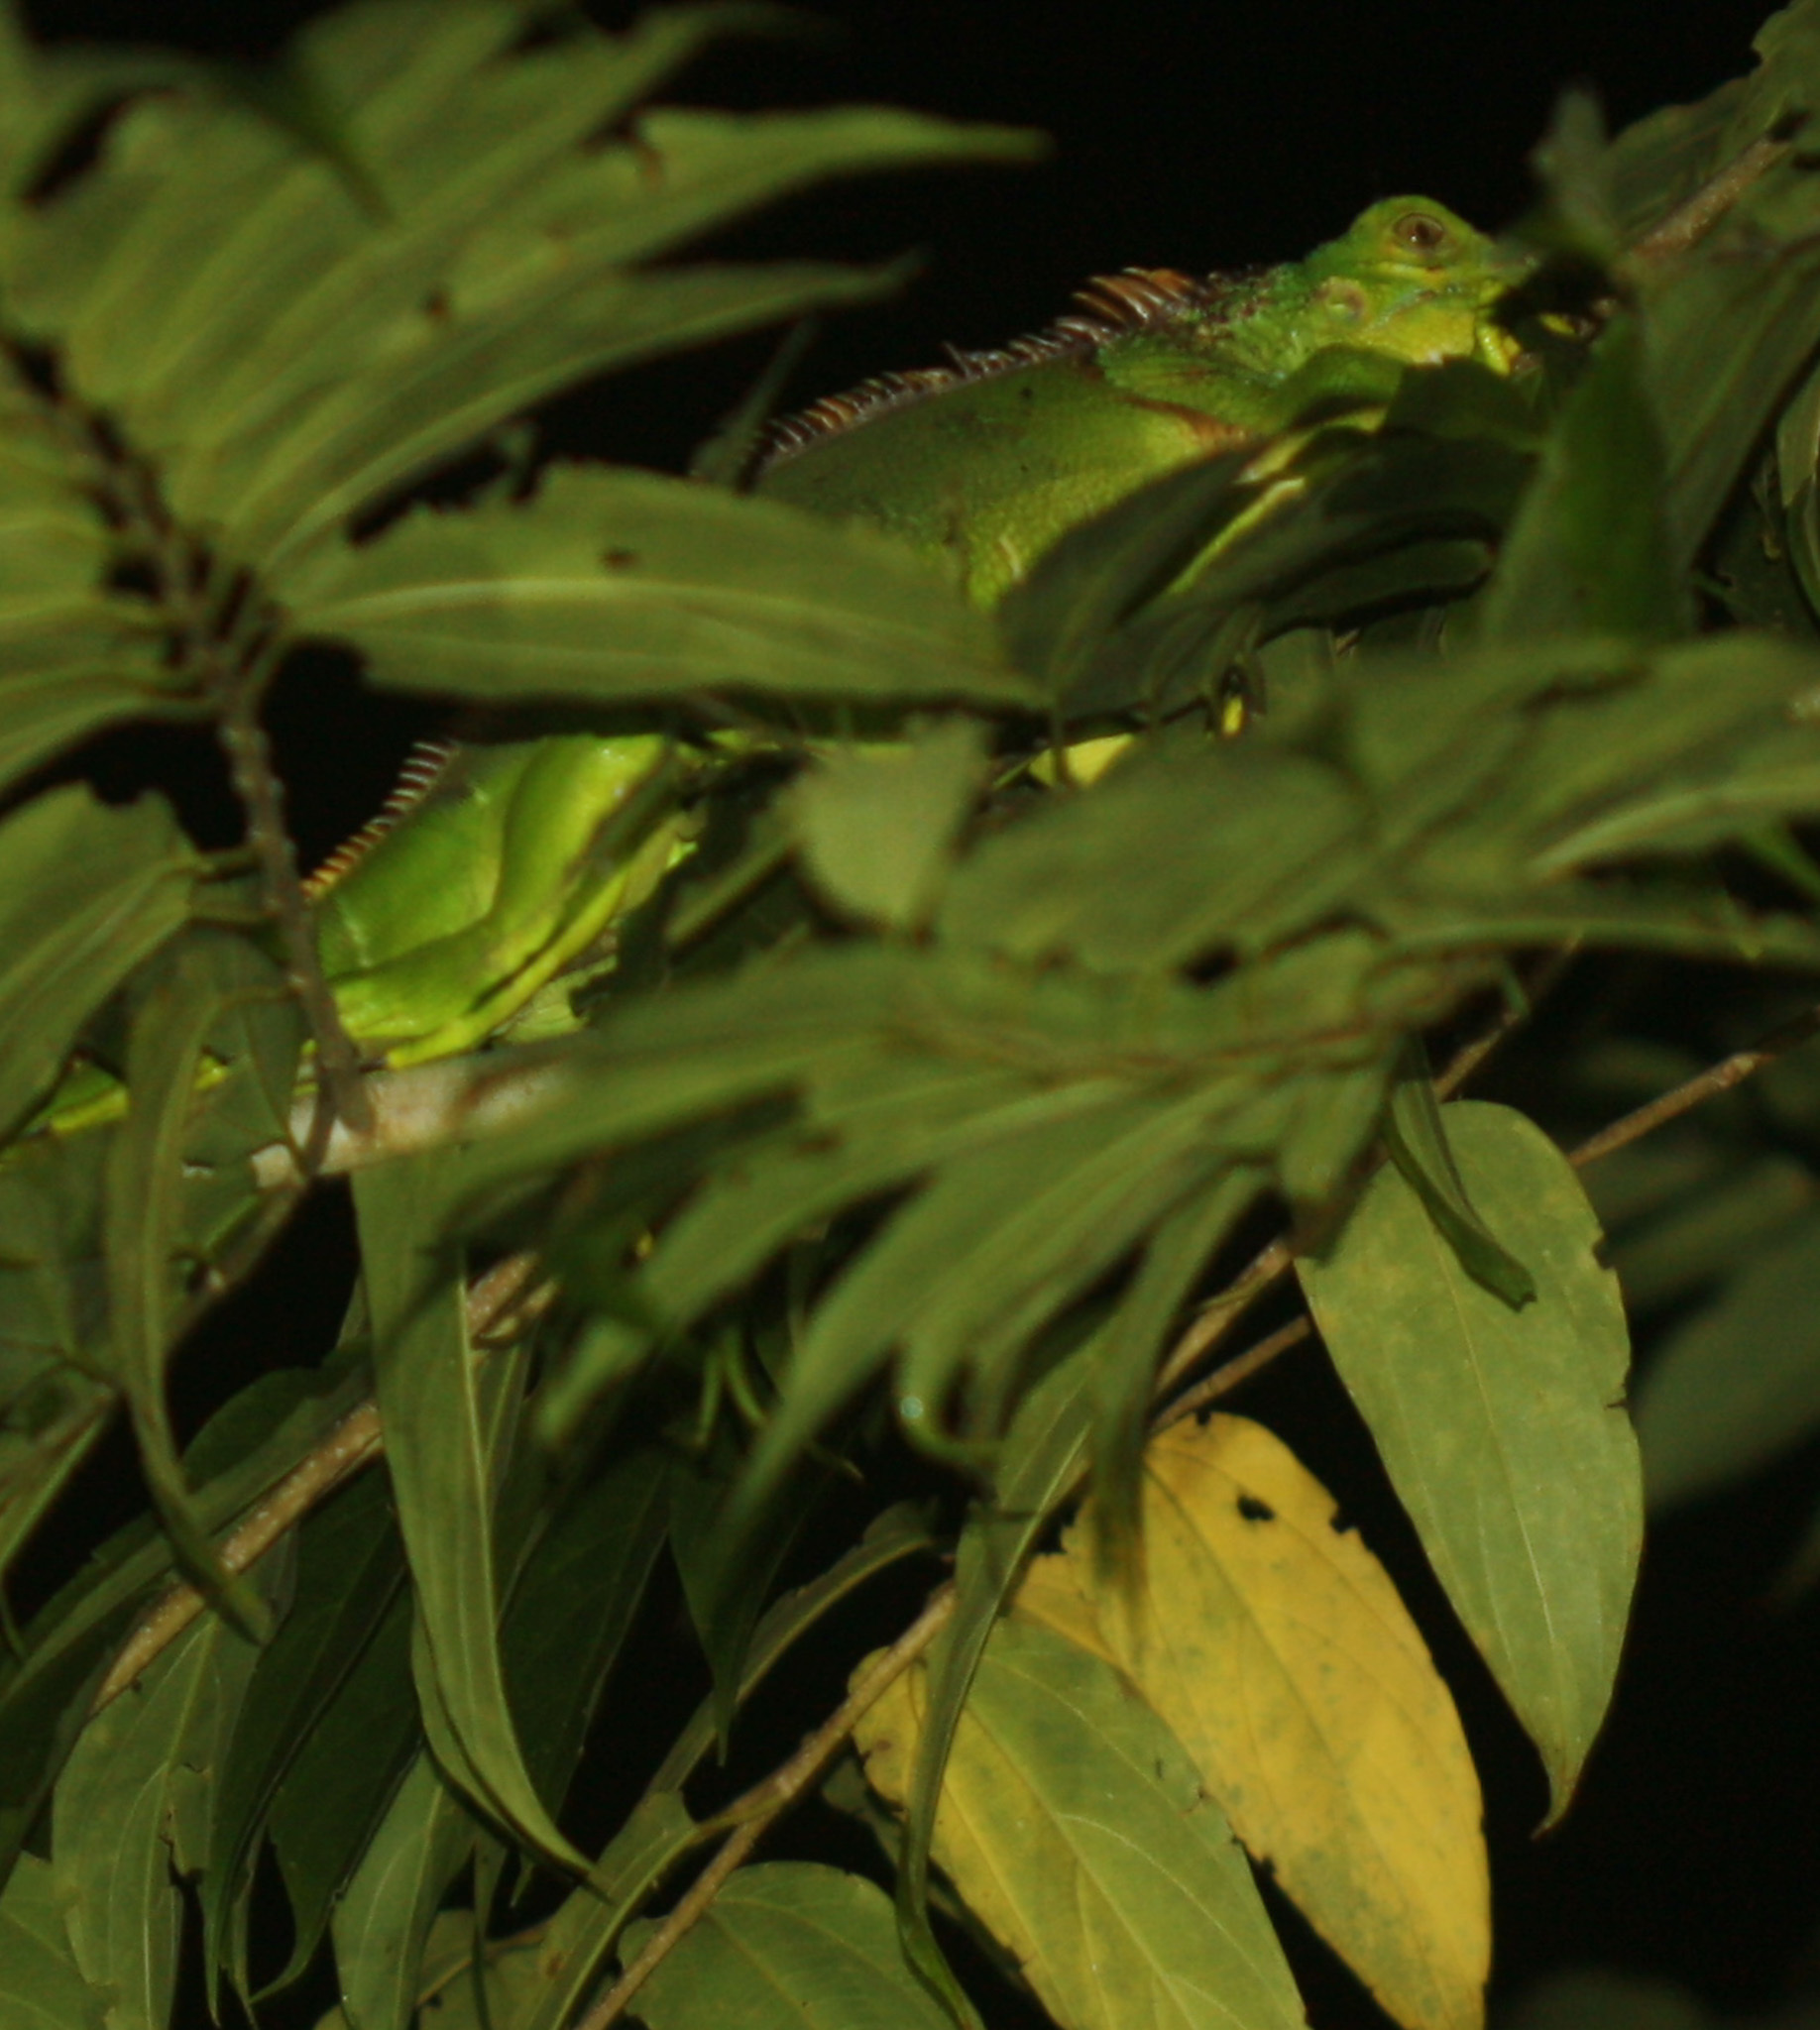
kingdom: Animalia
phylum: Chordata
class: Squamata
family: Iguanidae
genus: Iguana
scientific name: Iguana iguana
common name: Green iguana
